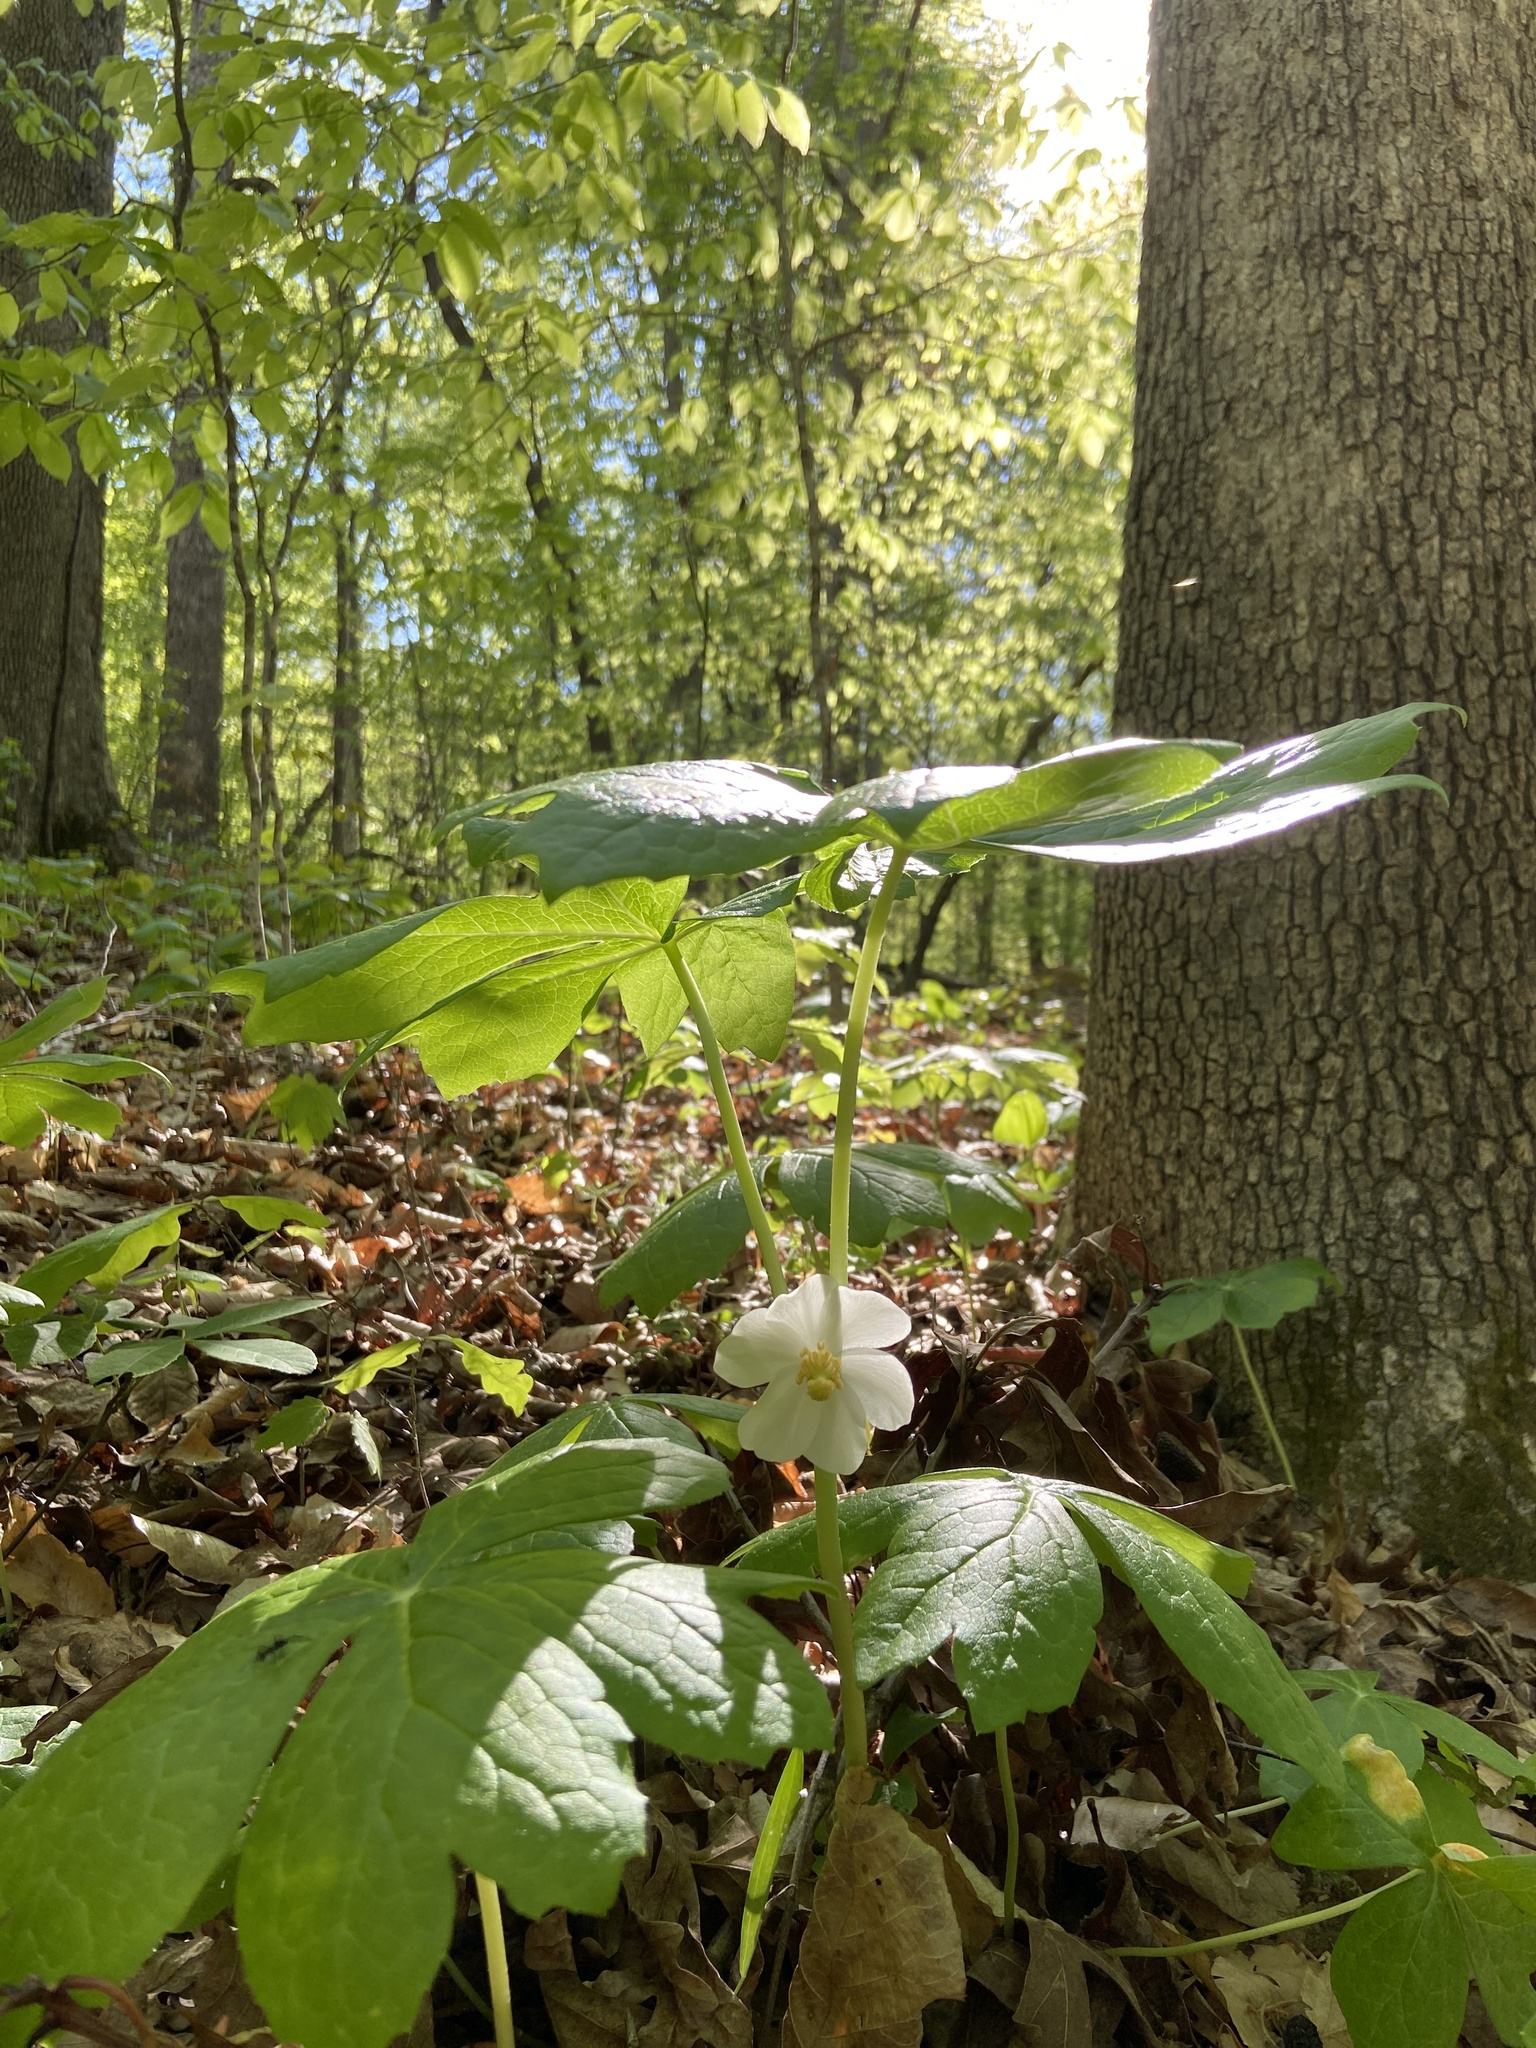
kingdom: Plantae
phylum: Tracheophyta
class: Magnoliopsida
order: Ranunculales
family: Berberidaceae
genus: Podophyllum
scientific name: Podophyllum peltatum
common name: Wild mandrake
